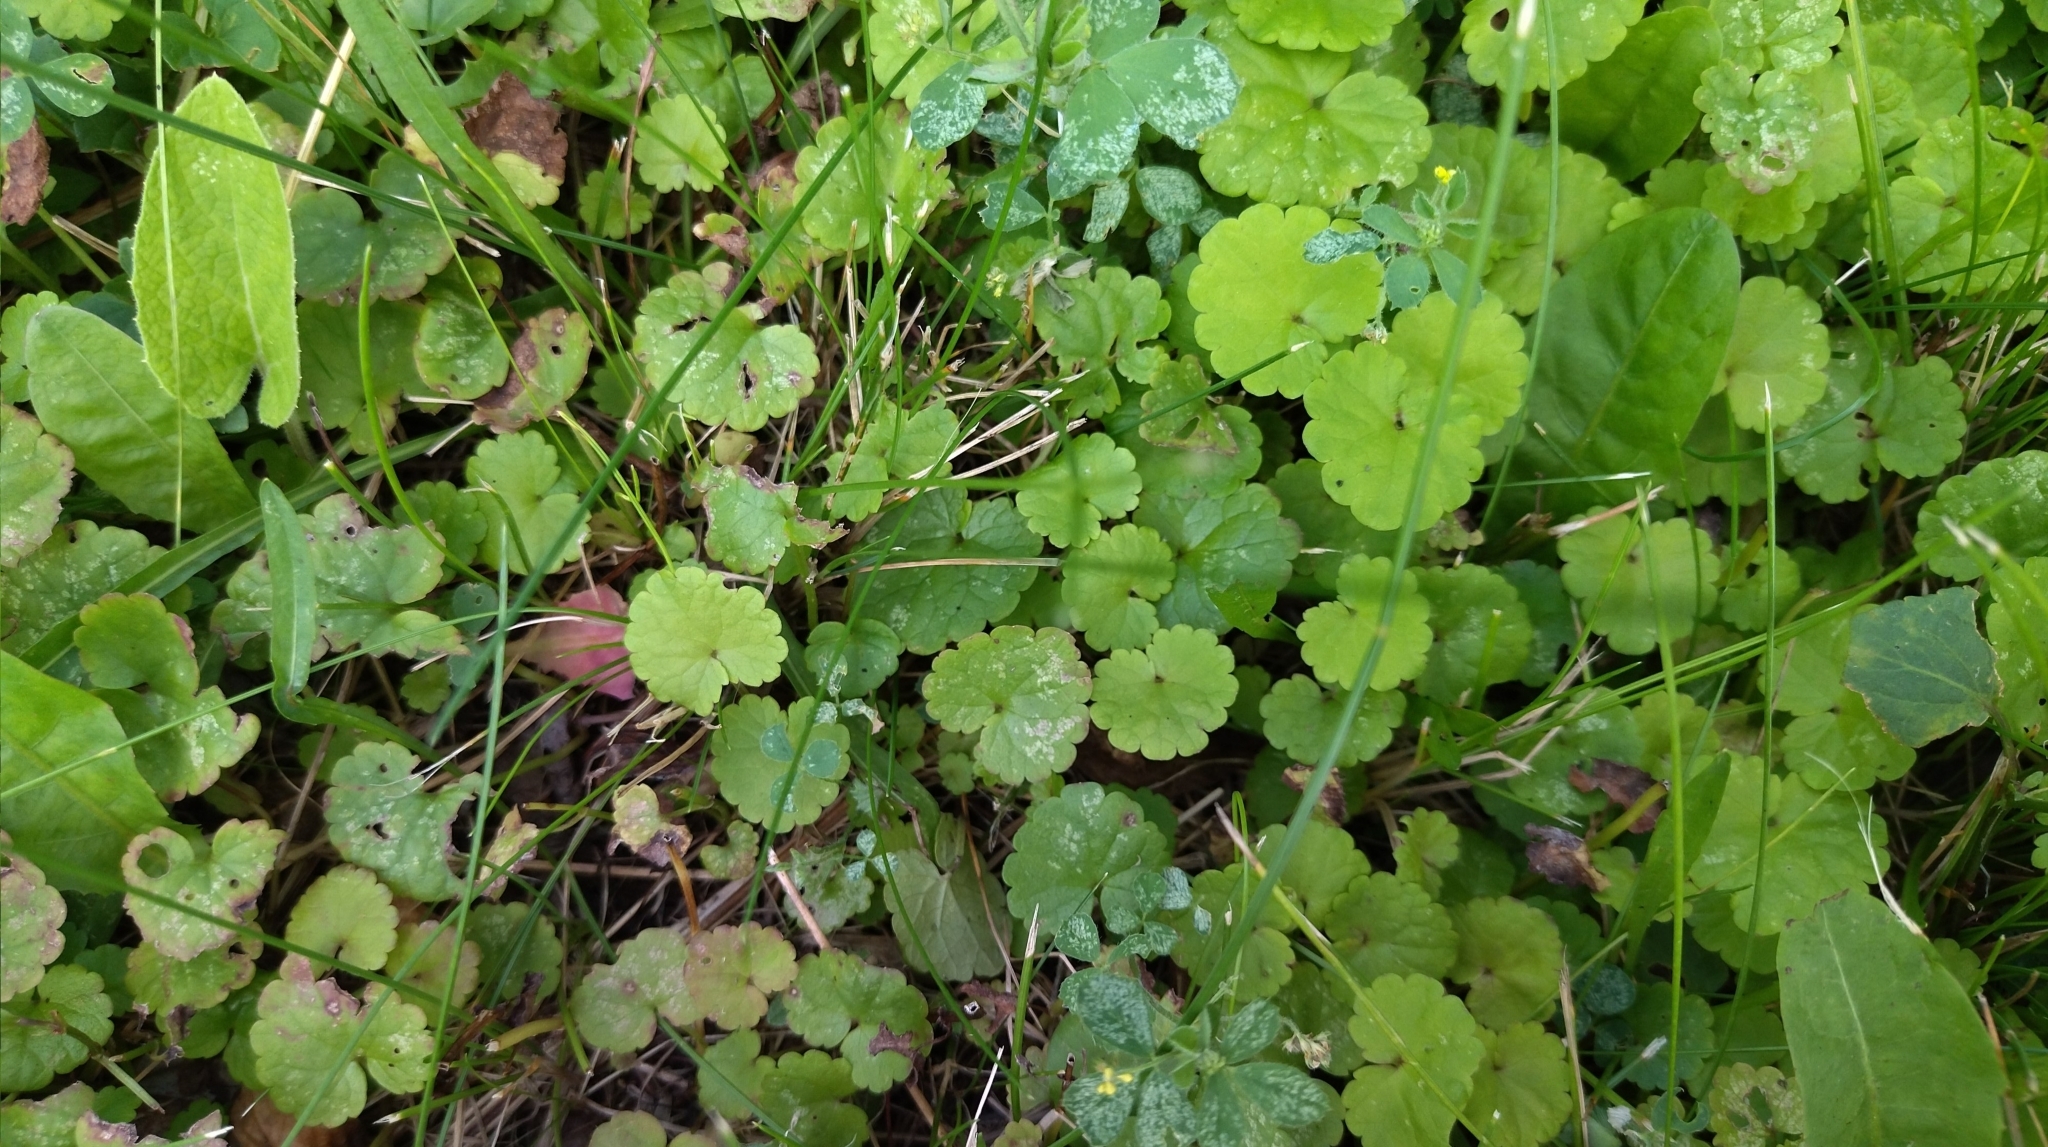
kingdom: Plantae
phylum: Tracheophyta
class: Magnoliopsida
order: Lamiales
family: Lamiaceae
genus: Glechoma
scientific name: Glechoma hederacea
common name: Ground ivy
